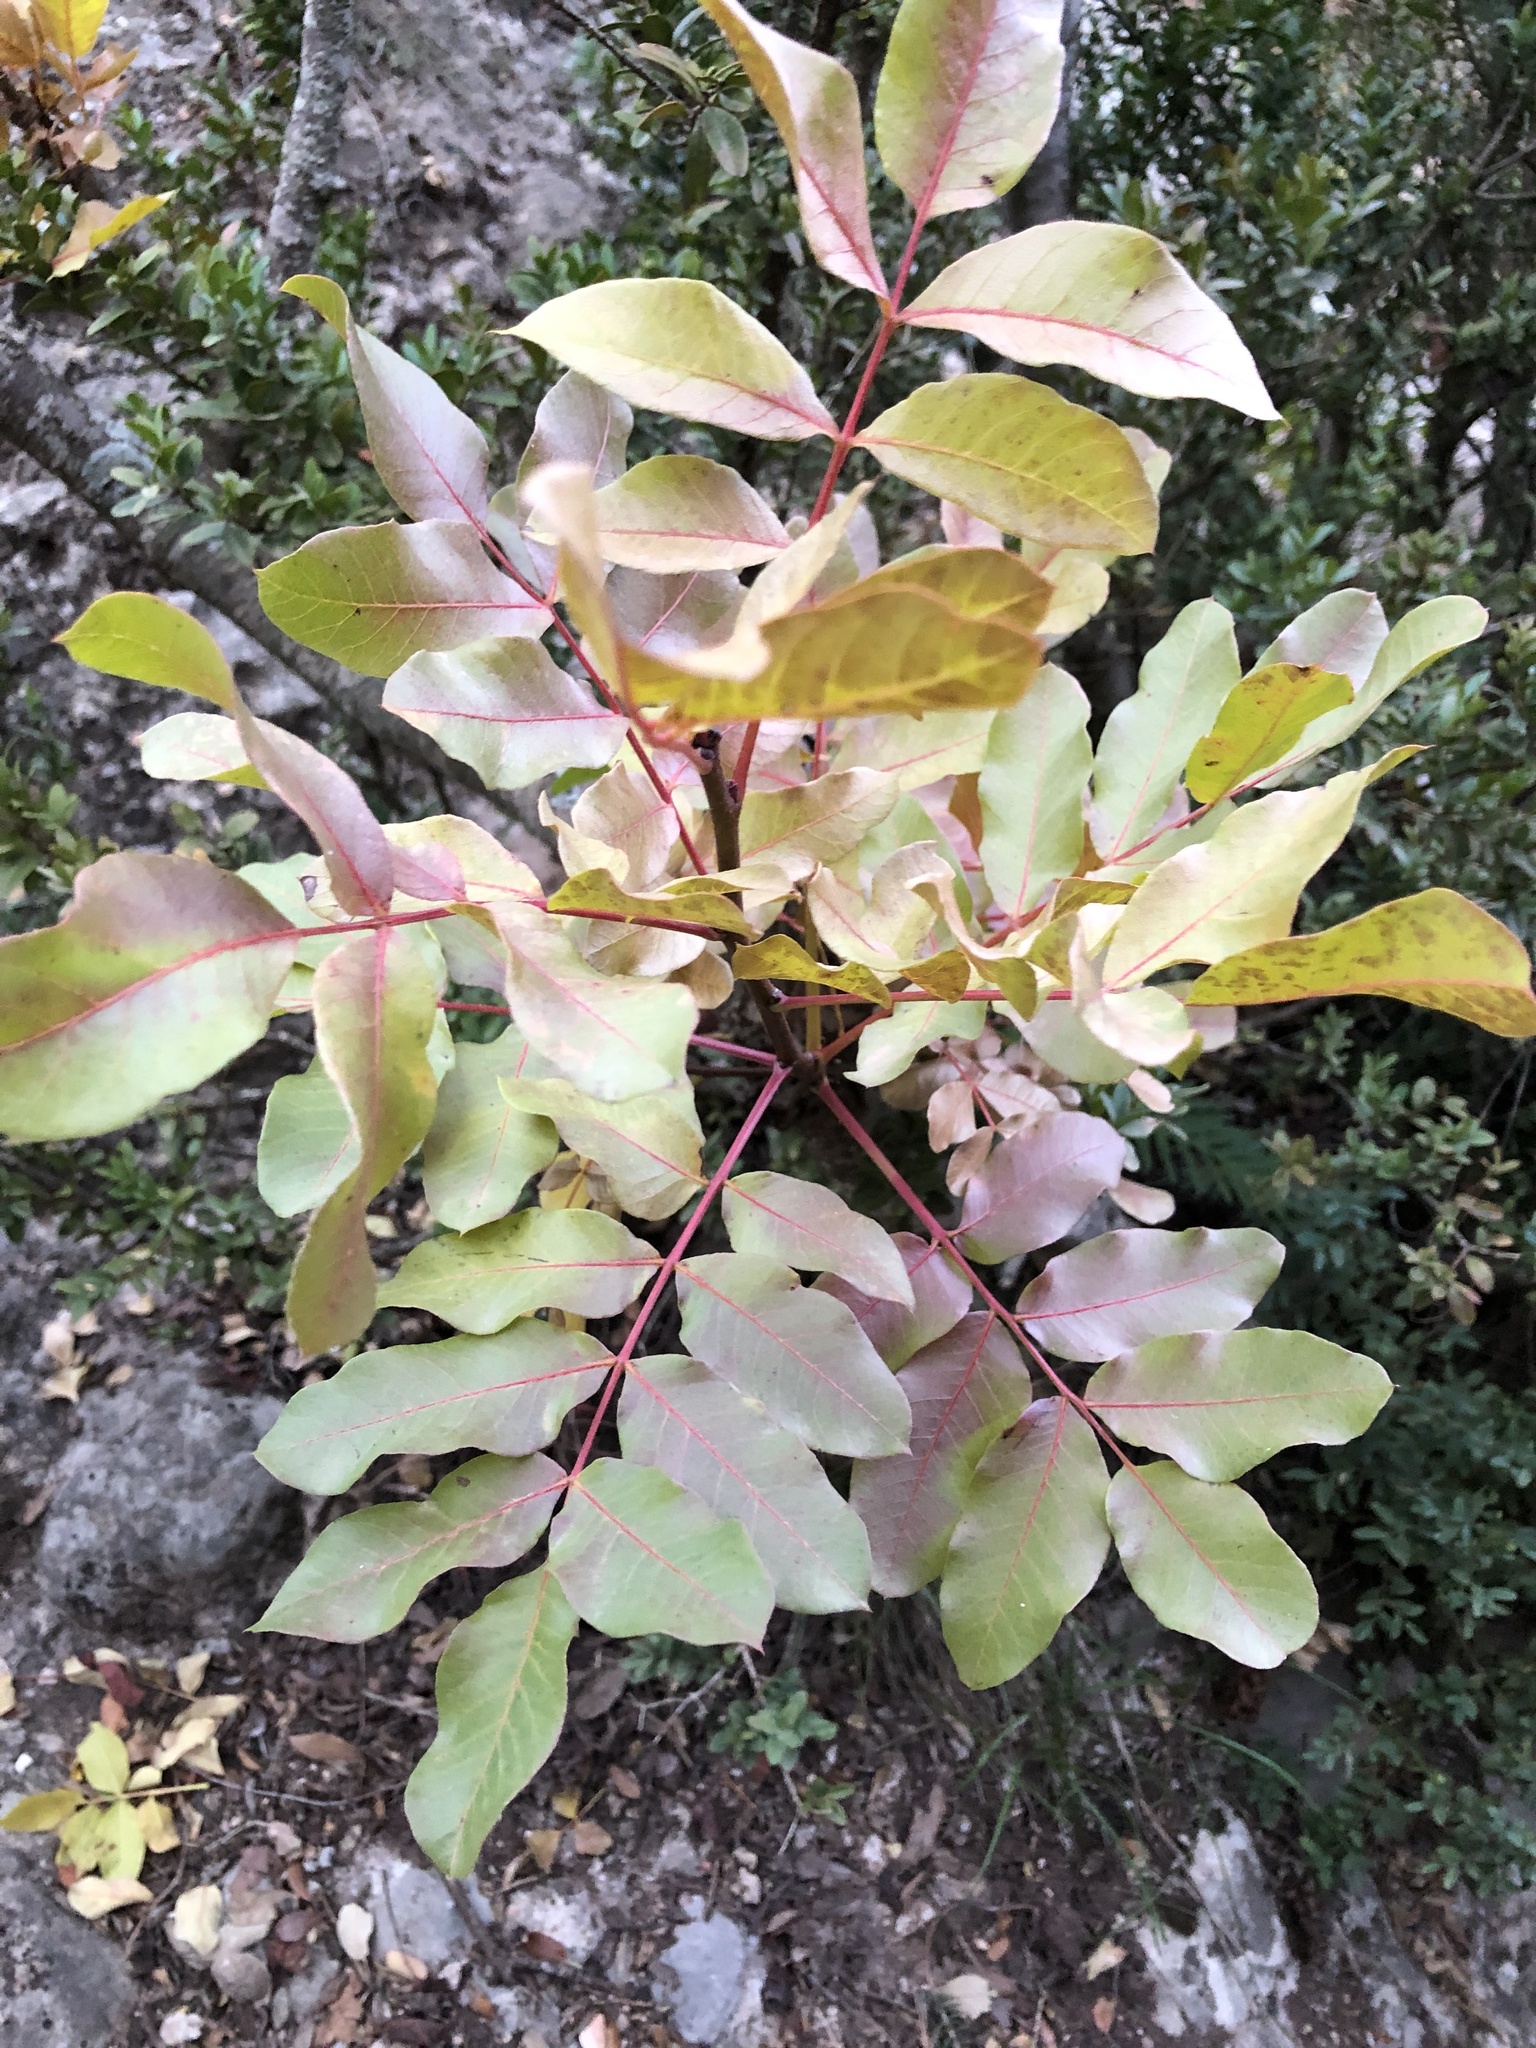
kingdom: Plantae
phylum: Tracheophyta
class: Magnoliopsida
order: Sapindales
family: Anacardiaceae
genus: Pistacia
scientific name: Pistacia terebinthus
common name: Terebinth
